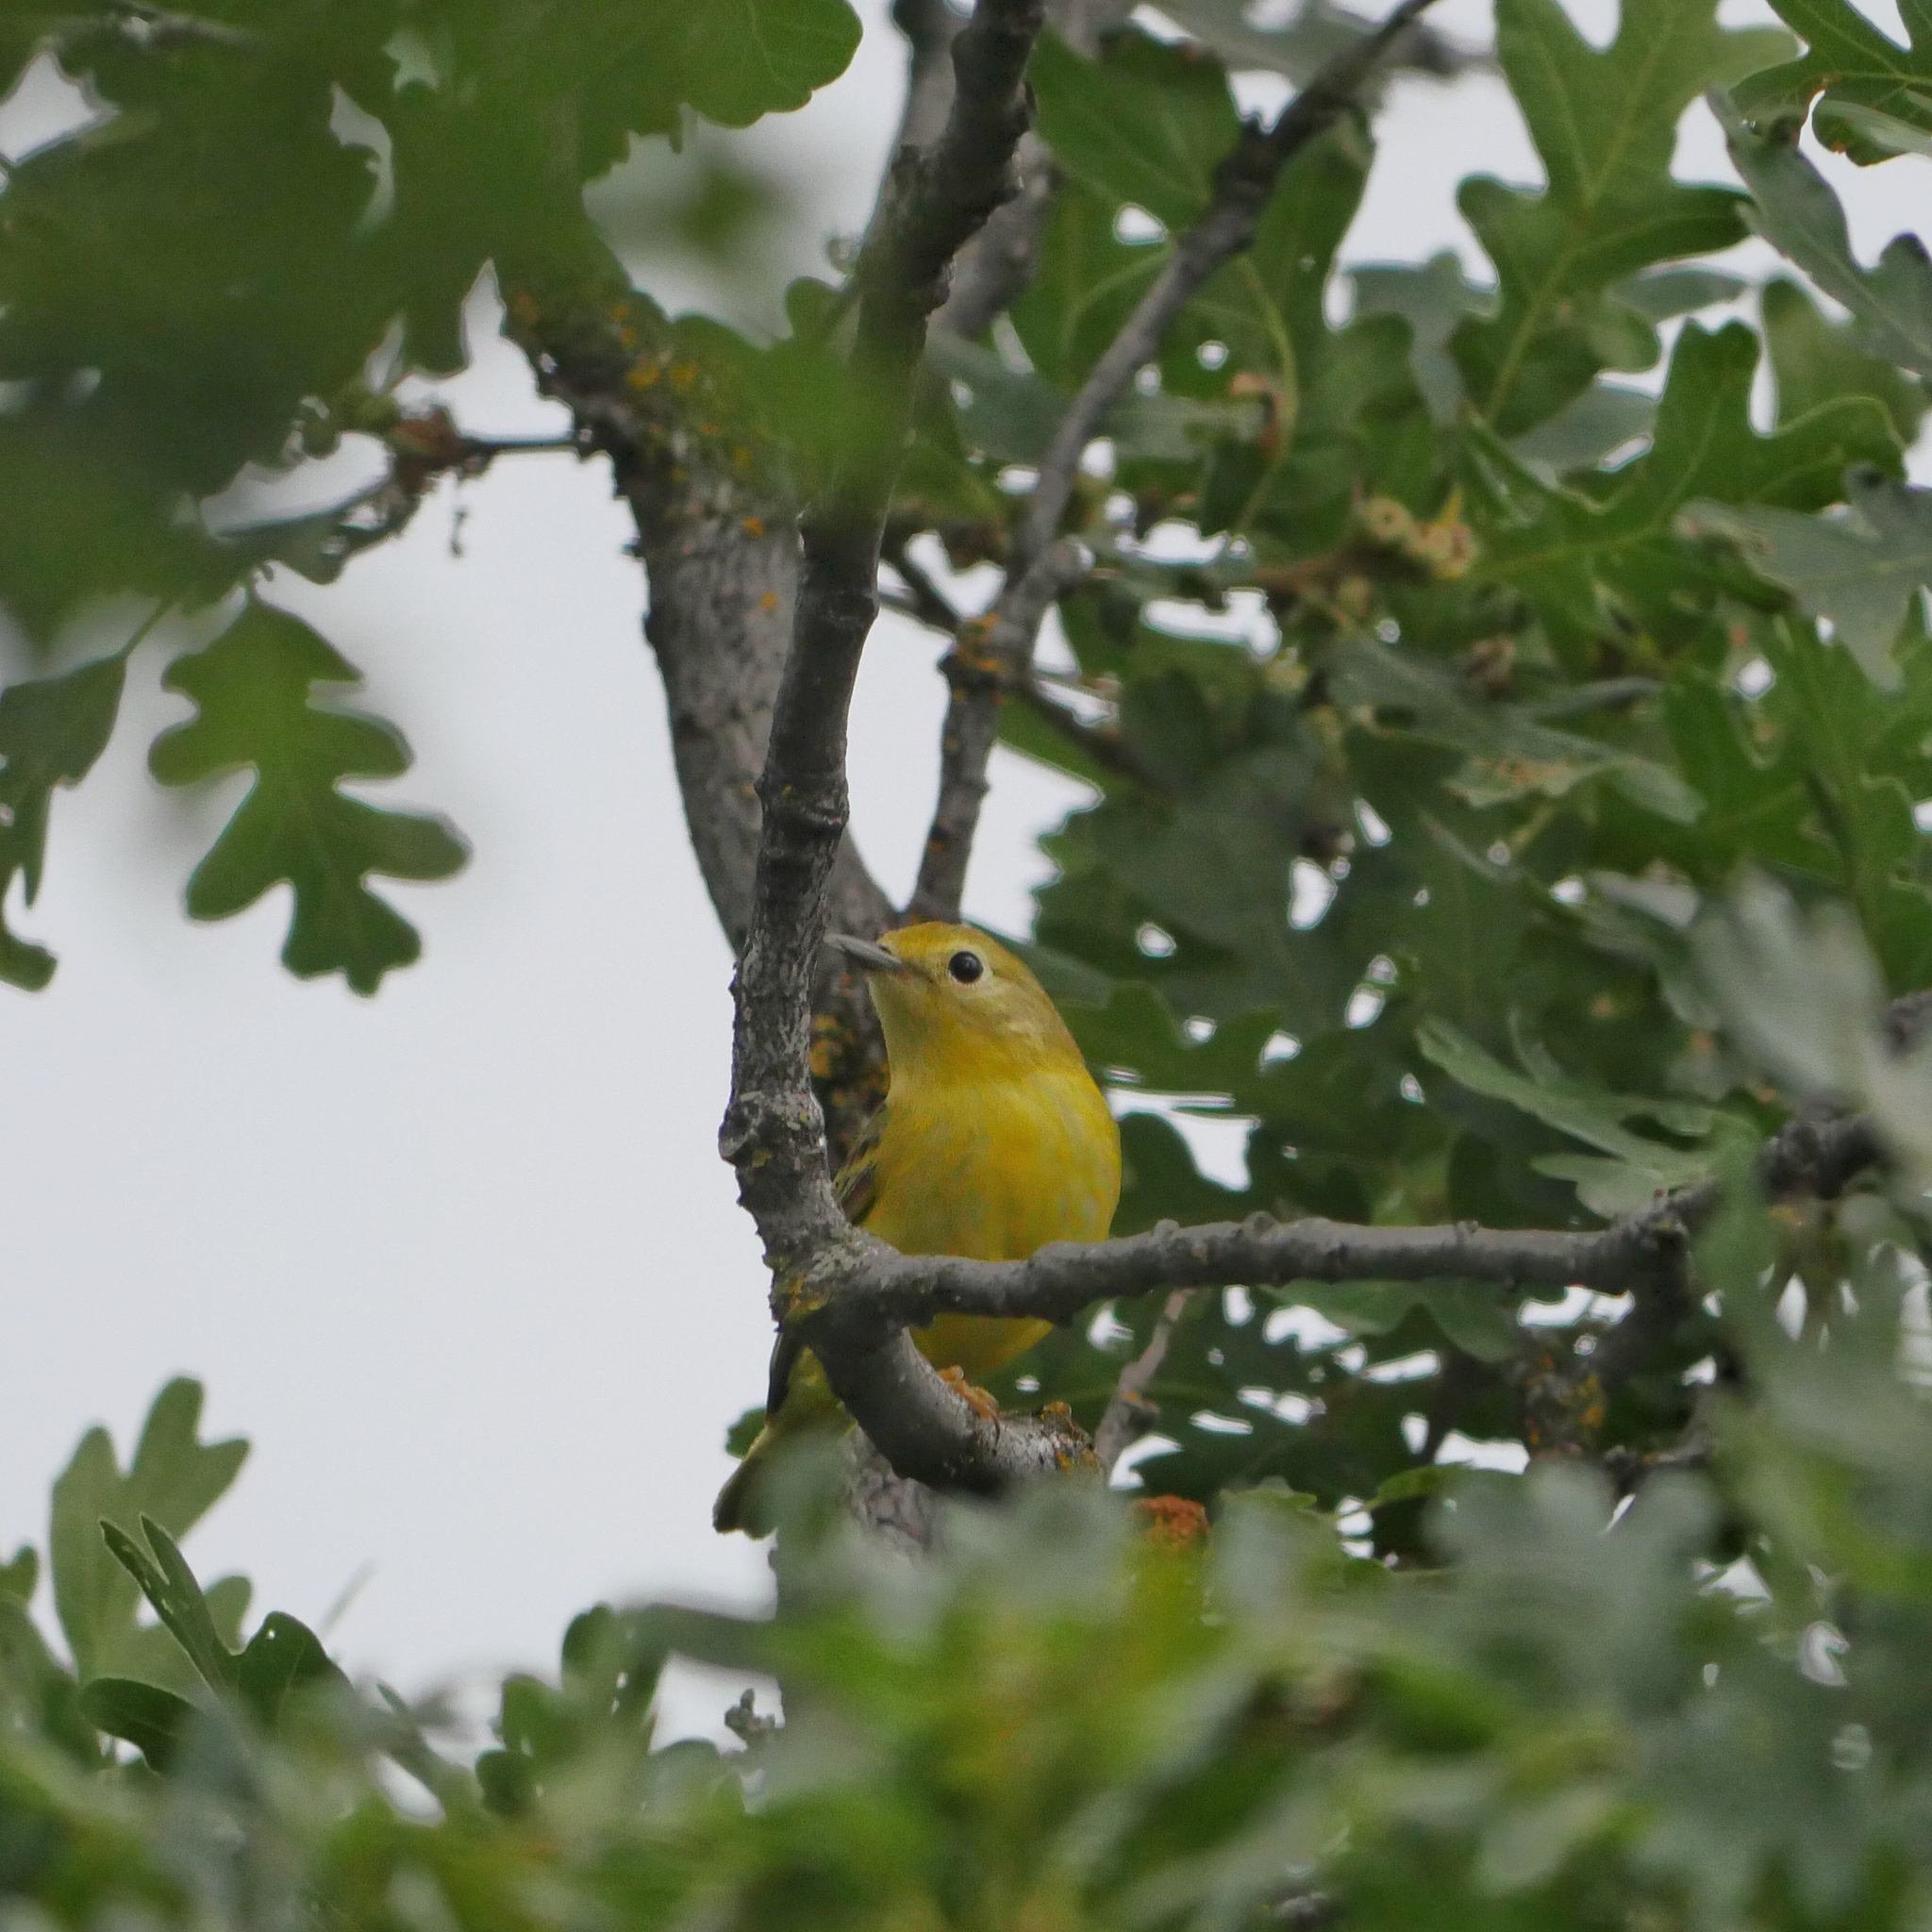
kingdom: Animalia
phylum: Chordata
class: Aves
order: Passeriformes
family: Parulidae
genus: Setophaga
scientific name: Setophaga petechia
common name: Yellow warbler
